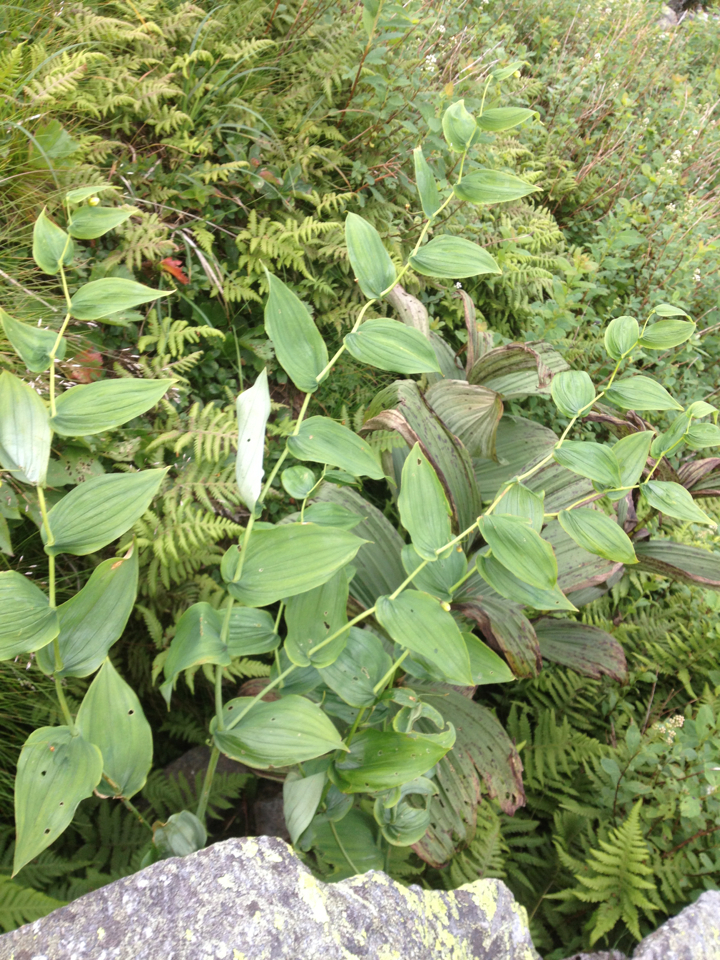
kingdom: Plantae
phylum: Tracheophyta
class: Liliopsida
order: Liliales
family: Liliaceae
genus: Streptopus
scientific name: Streptopus amplexifolius
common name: Clasp twisted stalk
